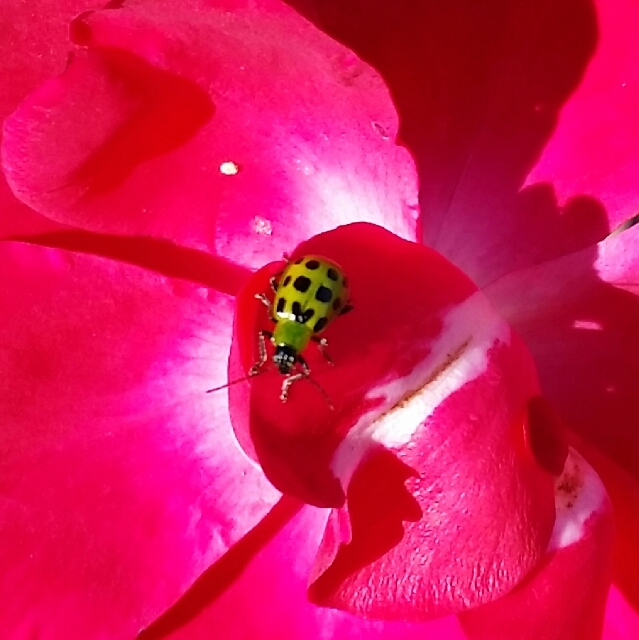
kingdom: Animalia
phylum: Arthropoda
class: Insecta
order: Coleoptera
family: Chrysomelidae
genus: Diabrotica
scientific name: Diabrotica undecimpunctata
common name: Spotted cucumber beetle
